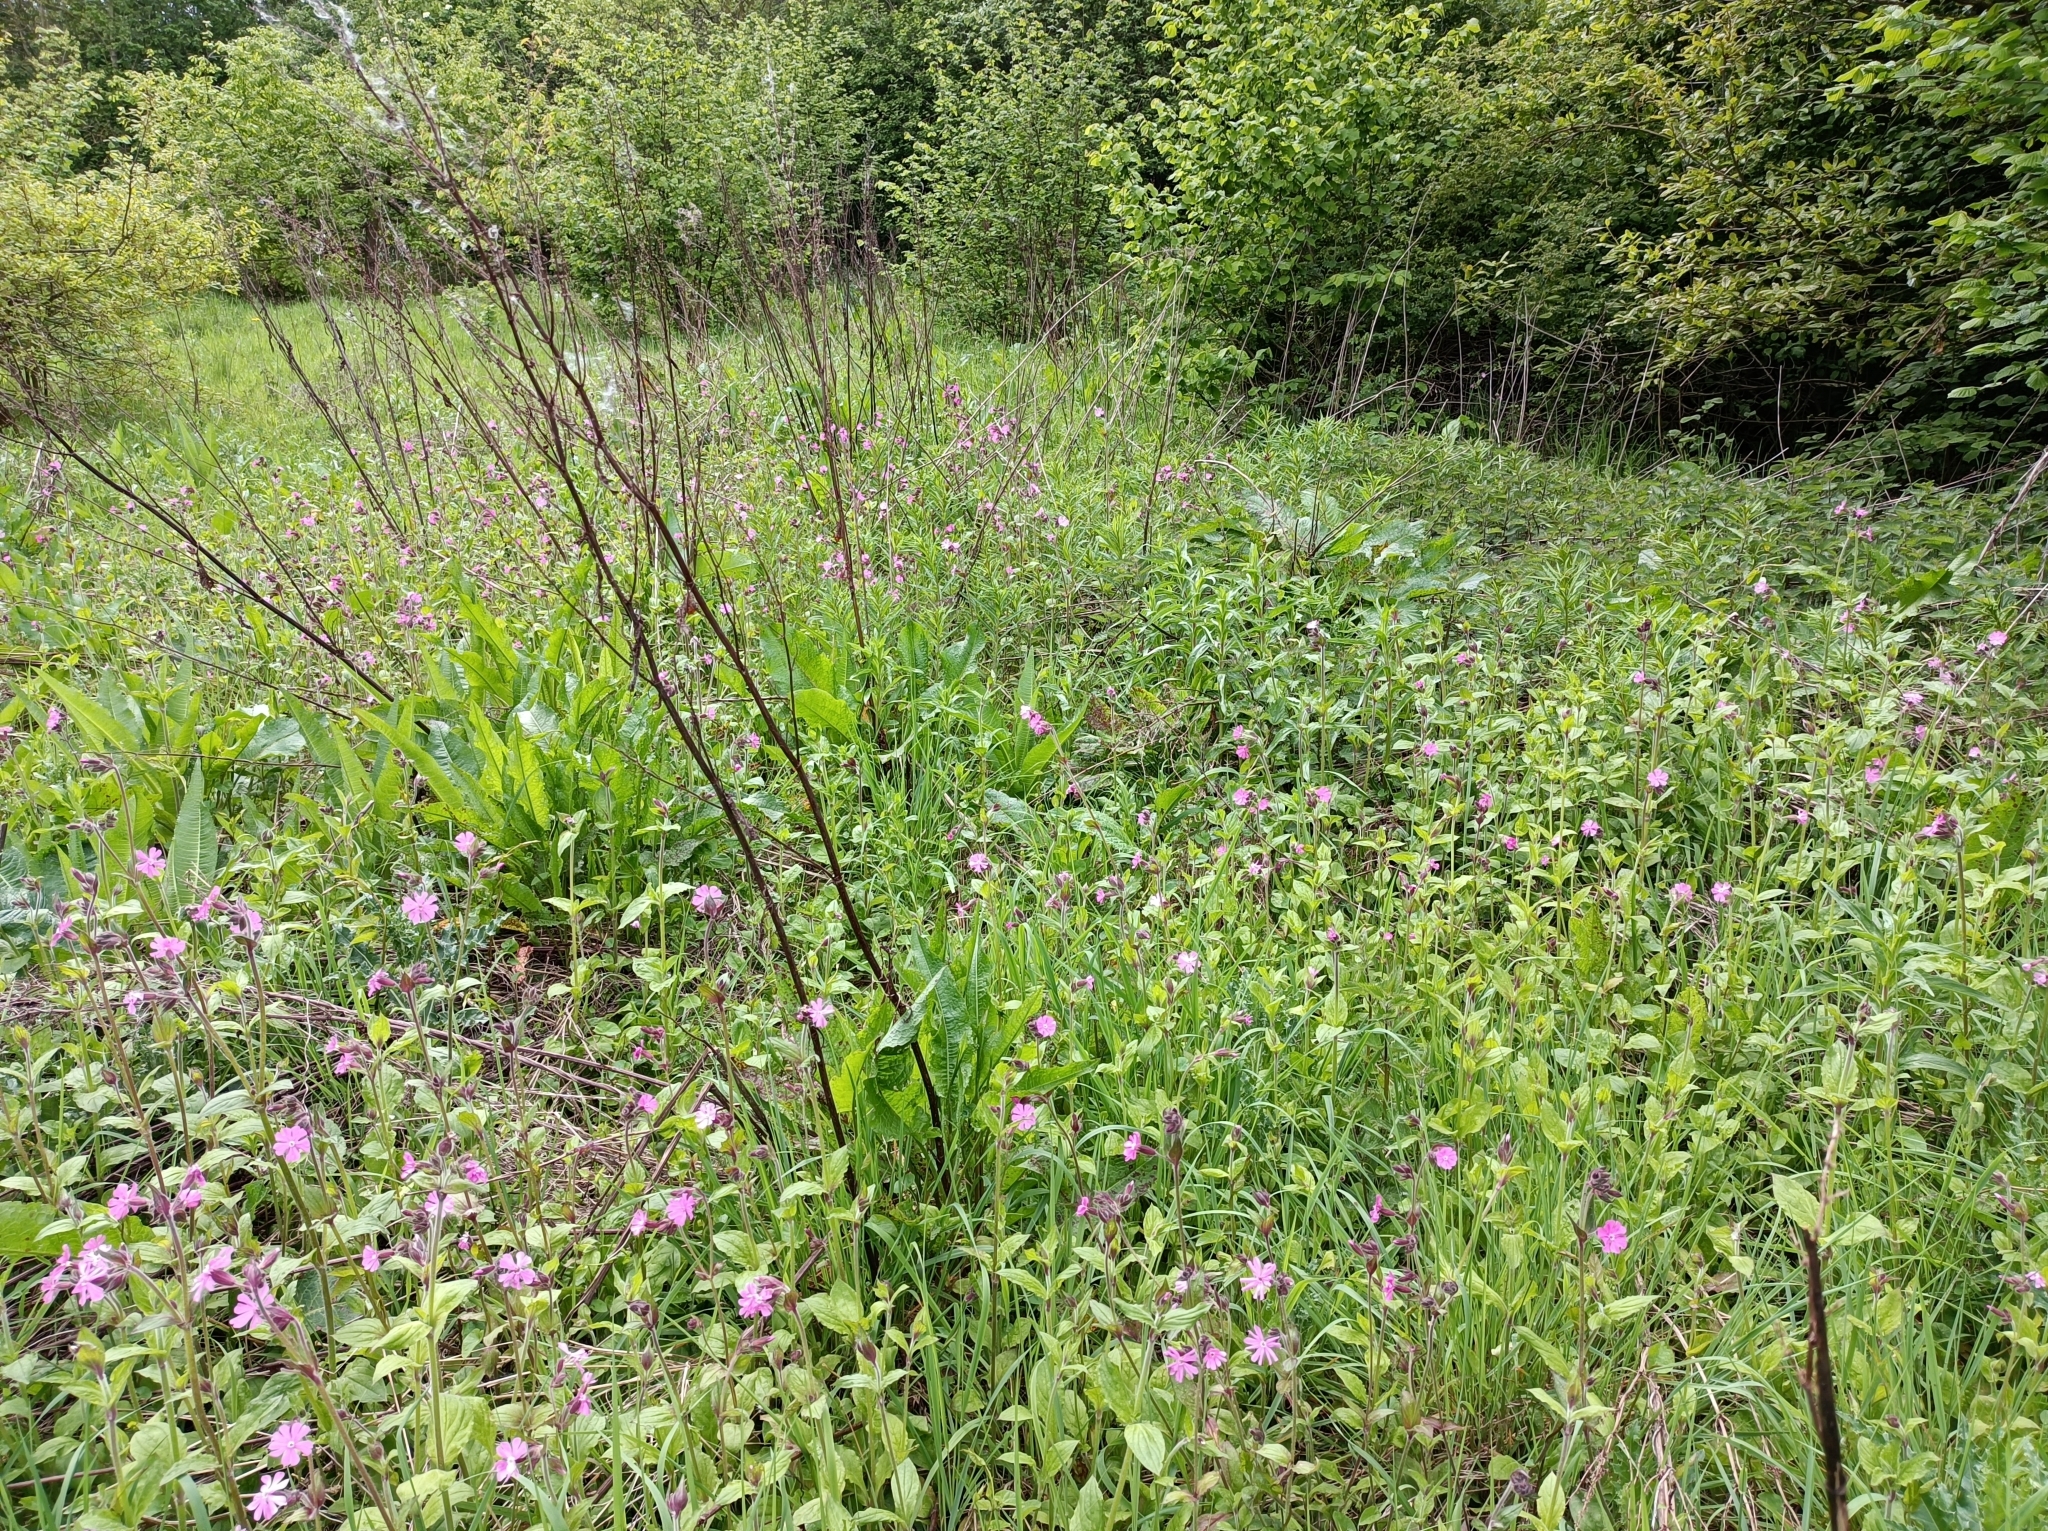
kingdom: Plantae
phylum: Tracheophyta
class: Magnoliopsida
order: Caryophyllales
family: Caryophyllaceae
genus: Silene
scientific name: Silene dioica
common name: Red campion
